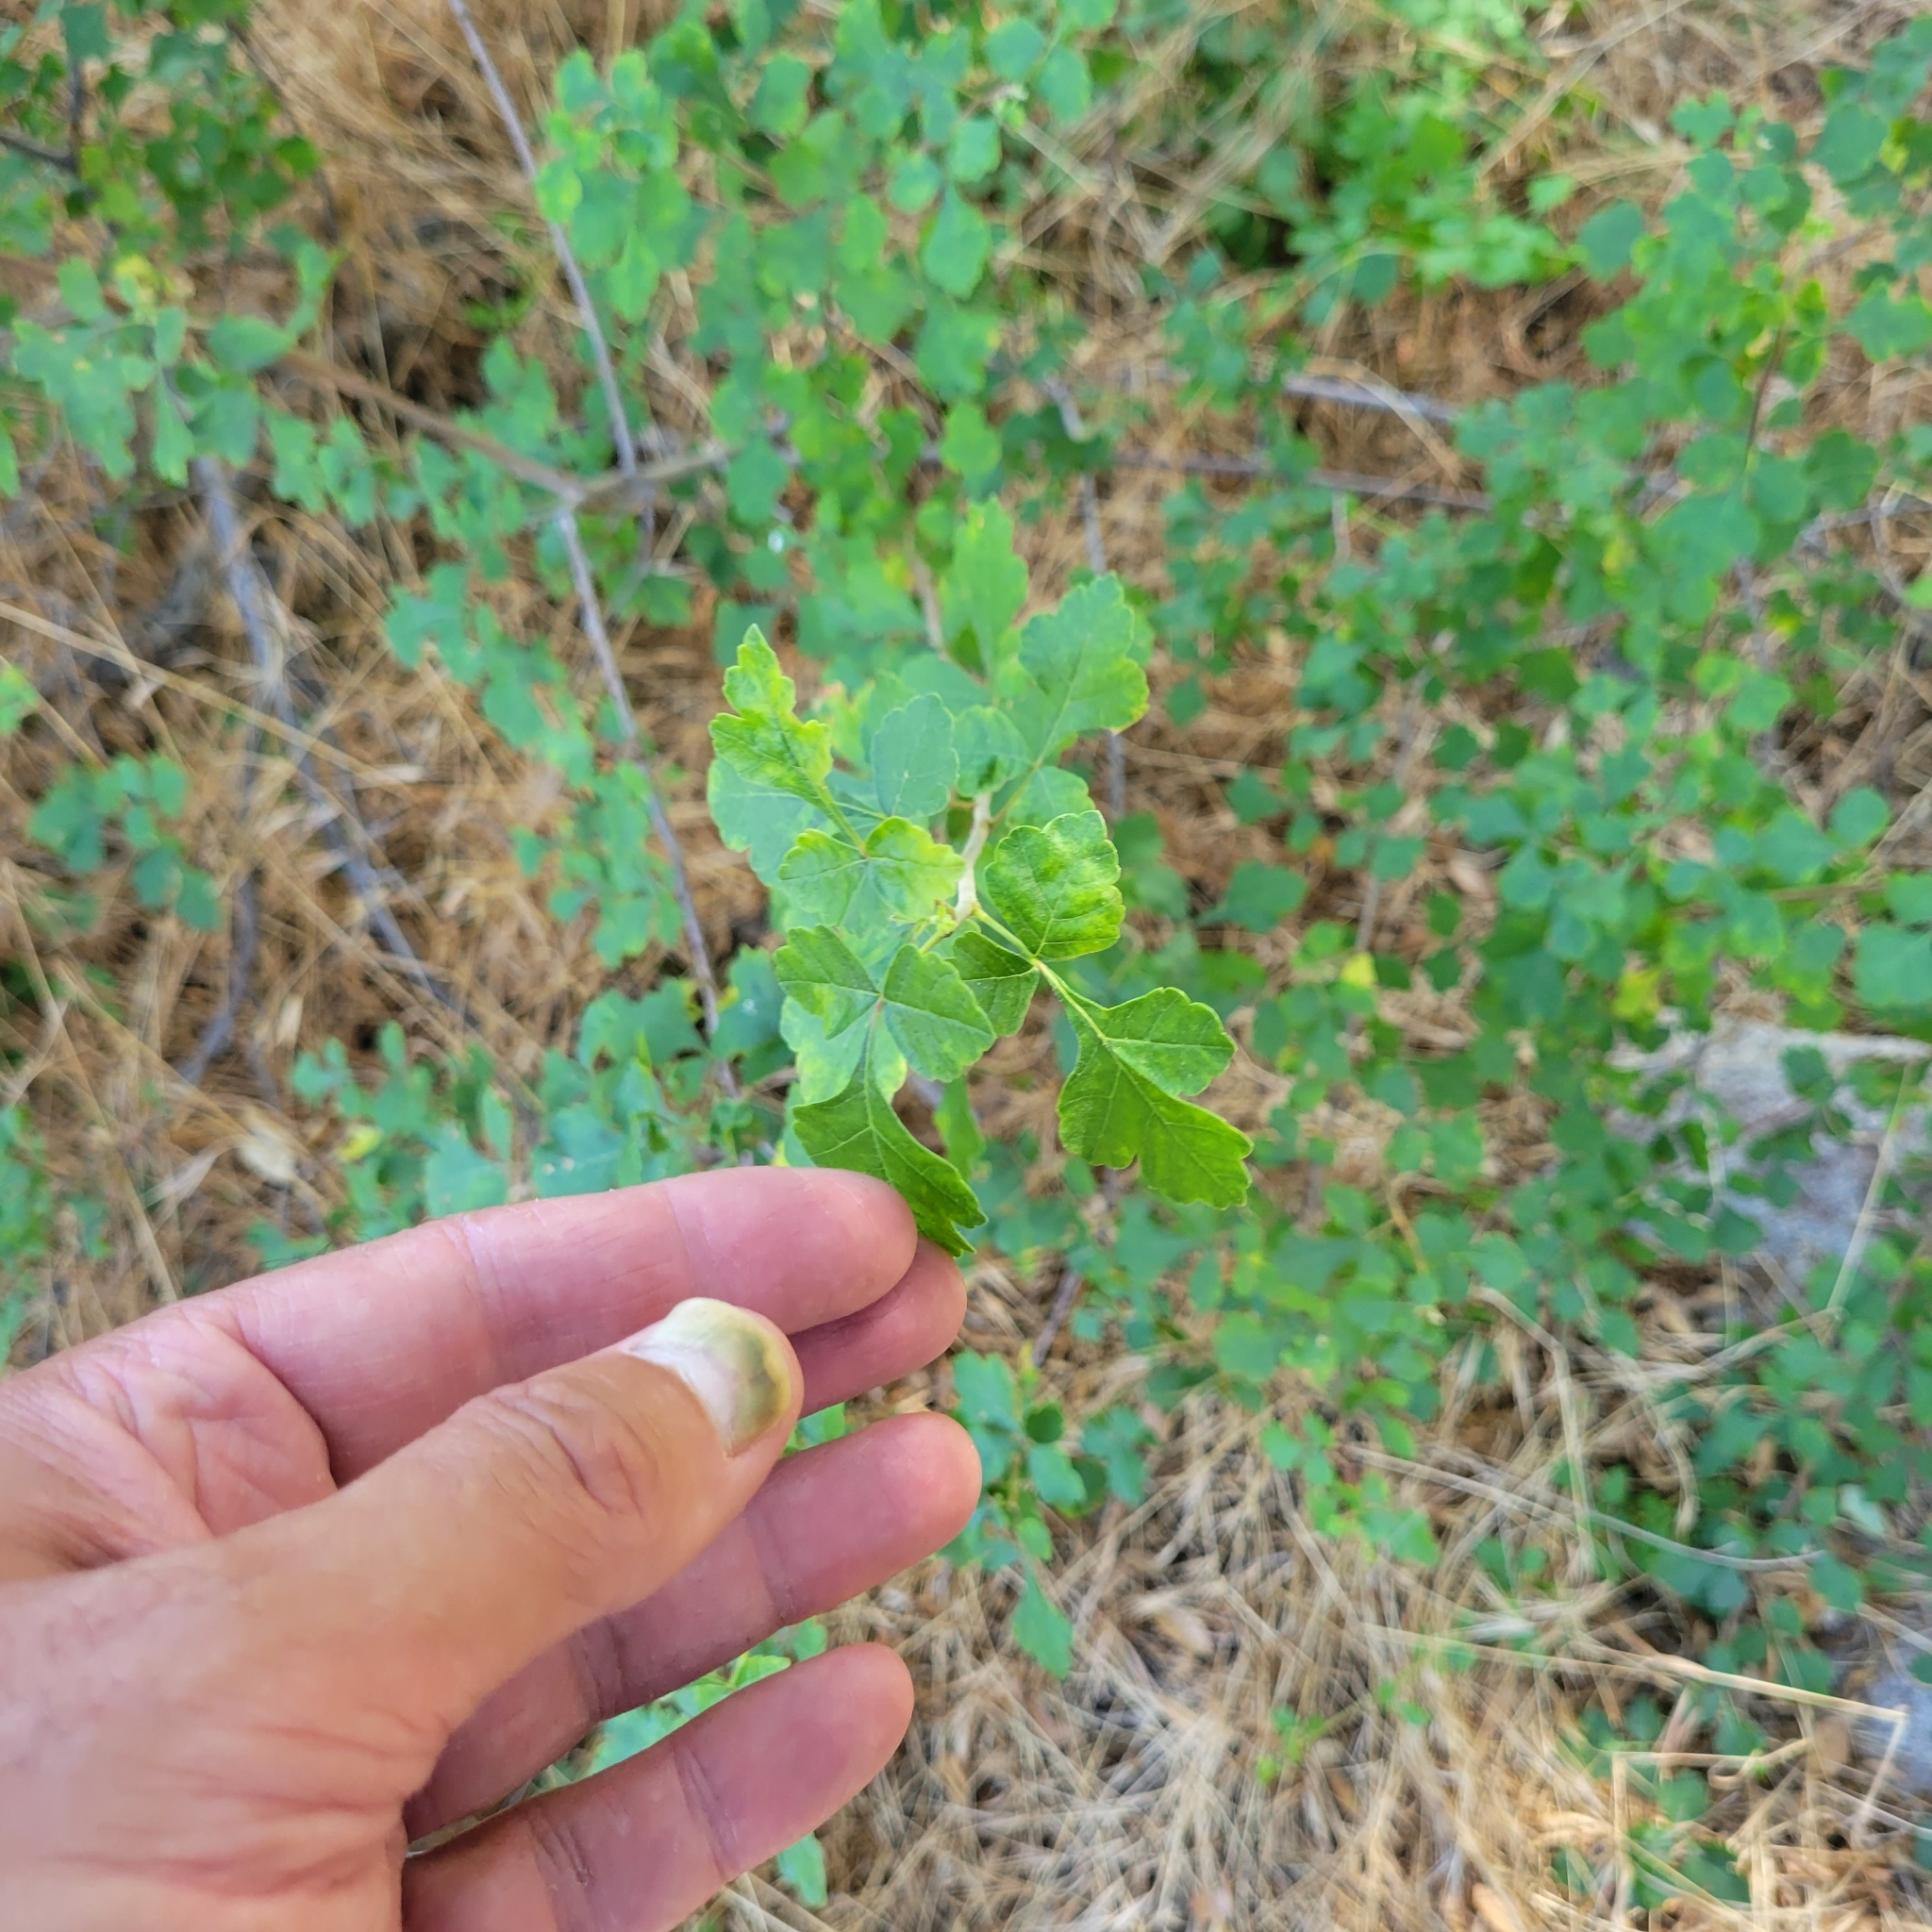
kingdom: Plantae
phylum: Tracheophyta
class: Magnoliopsida
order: Sapindales
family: Anacardiaceae
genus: Rhus
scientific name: Rhus aromatica
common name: Aromatic sumac
